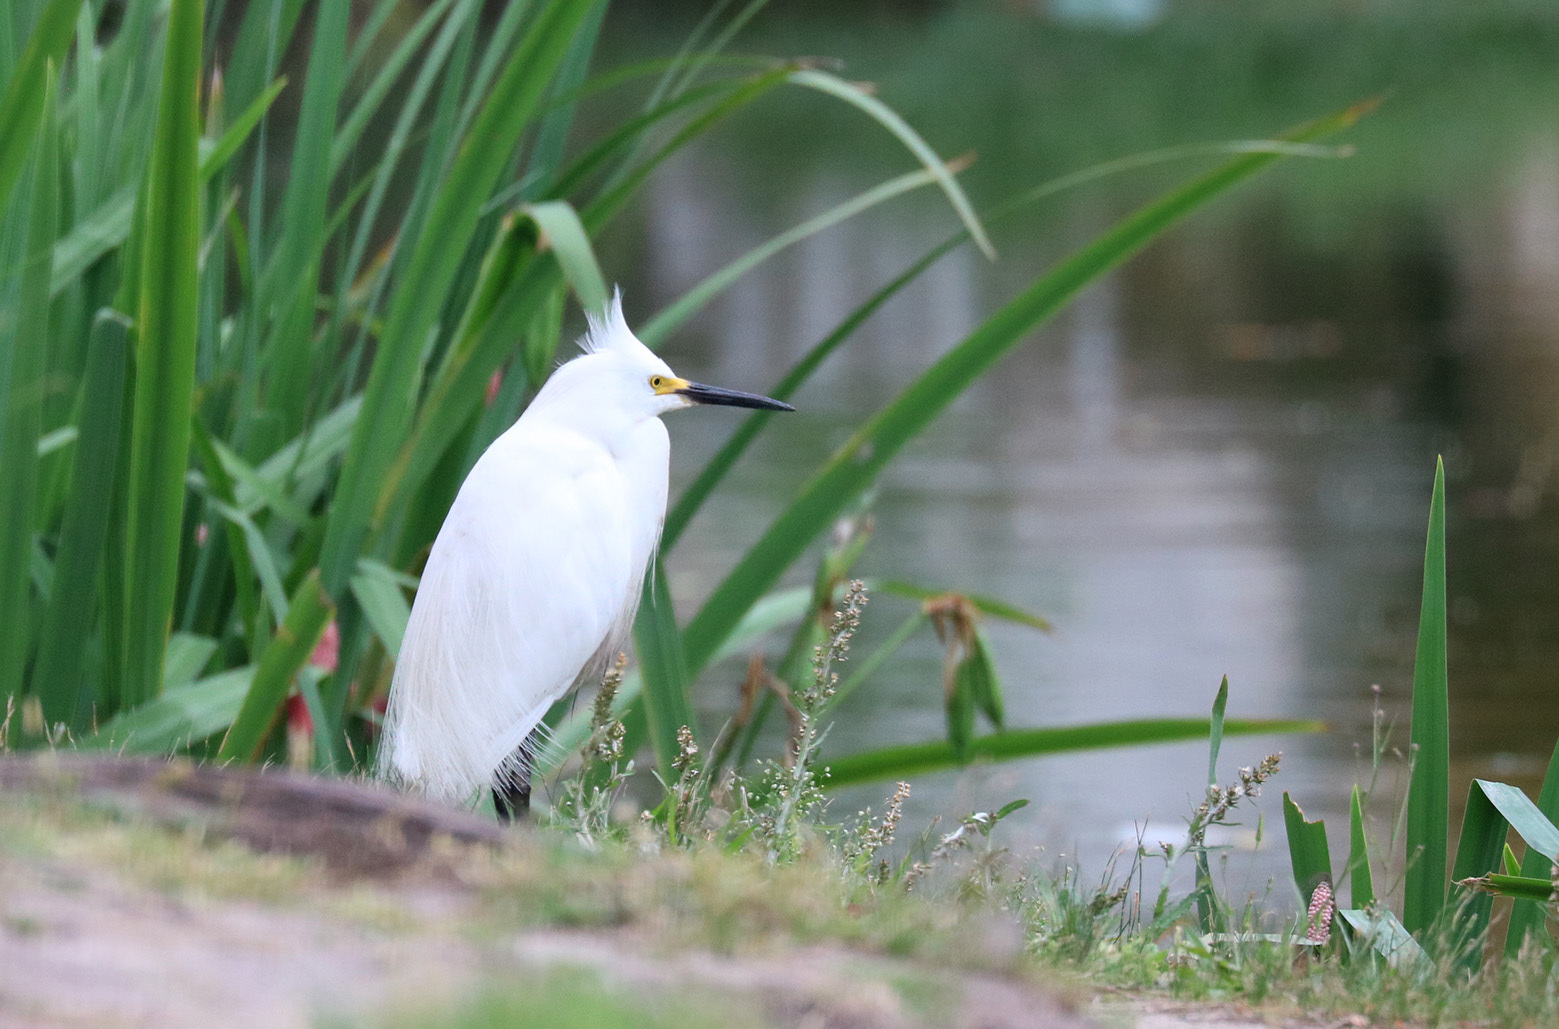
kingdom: Animalia
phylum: Chordata
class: Aves
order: Pelecaniformes
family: Ardeidae
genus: Egretta
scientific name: Egretta thula
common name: Snowy egret
